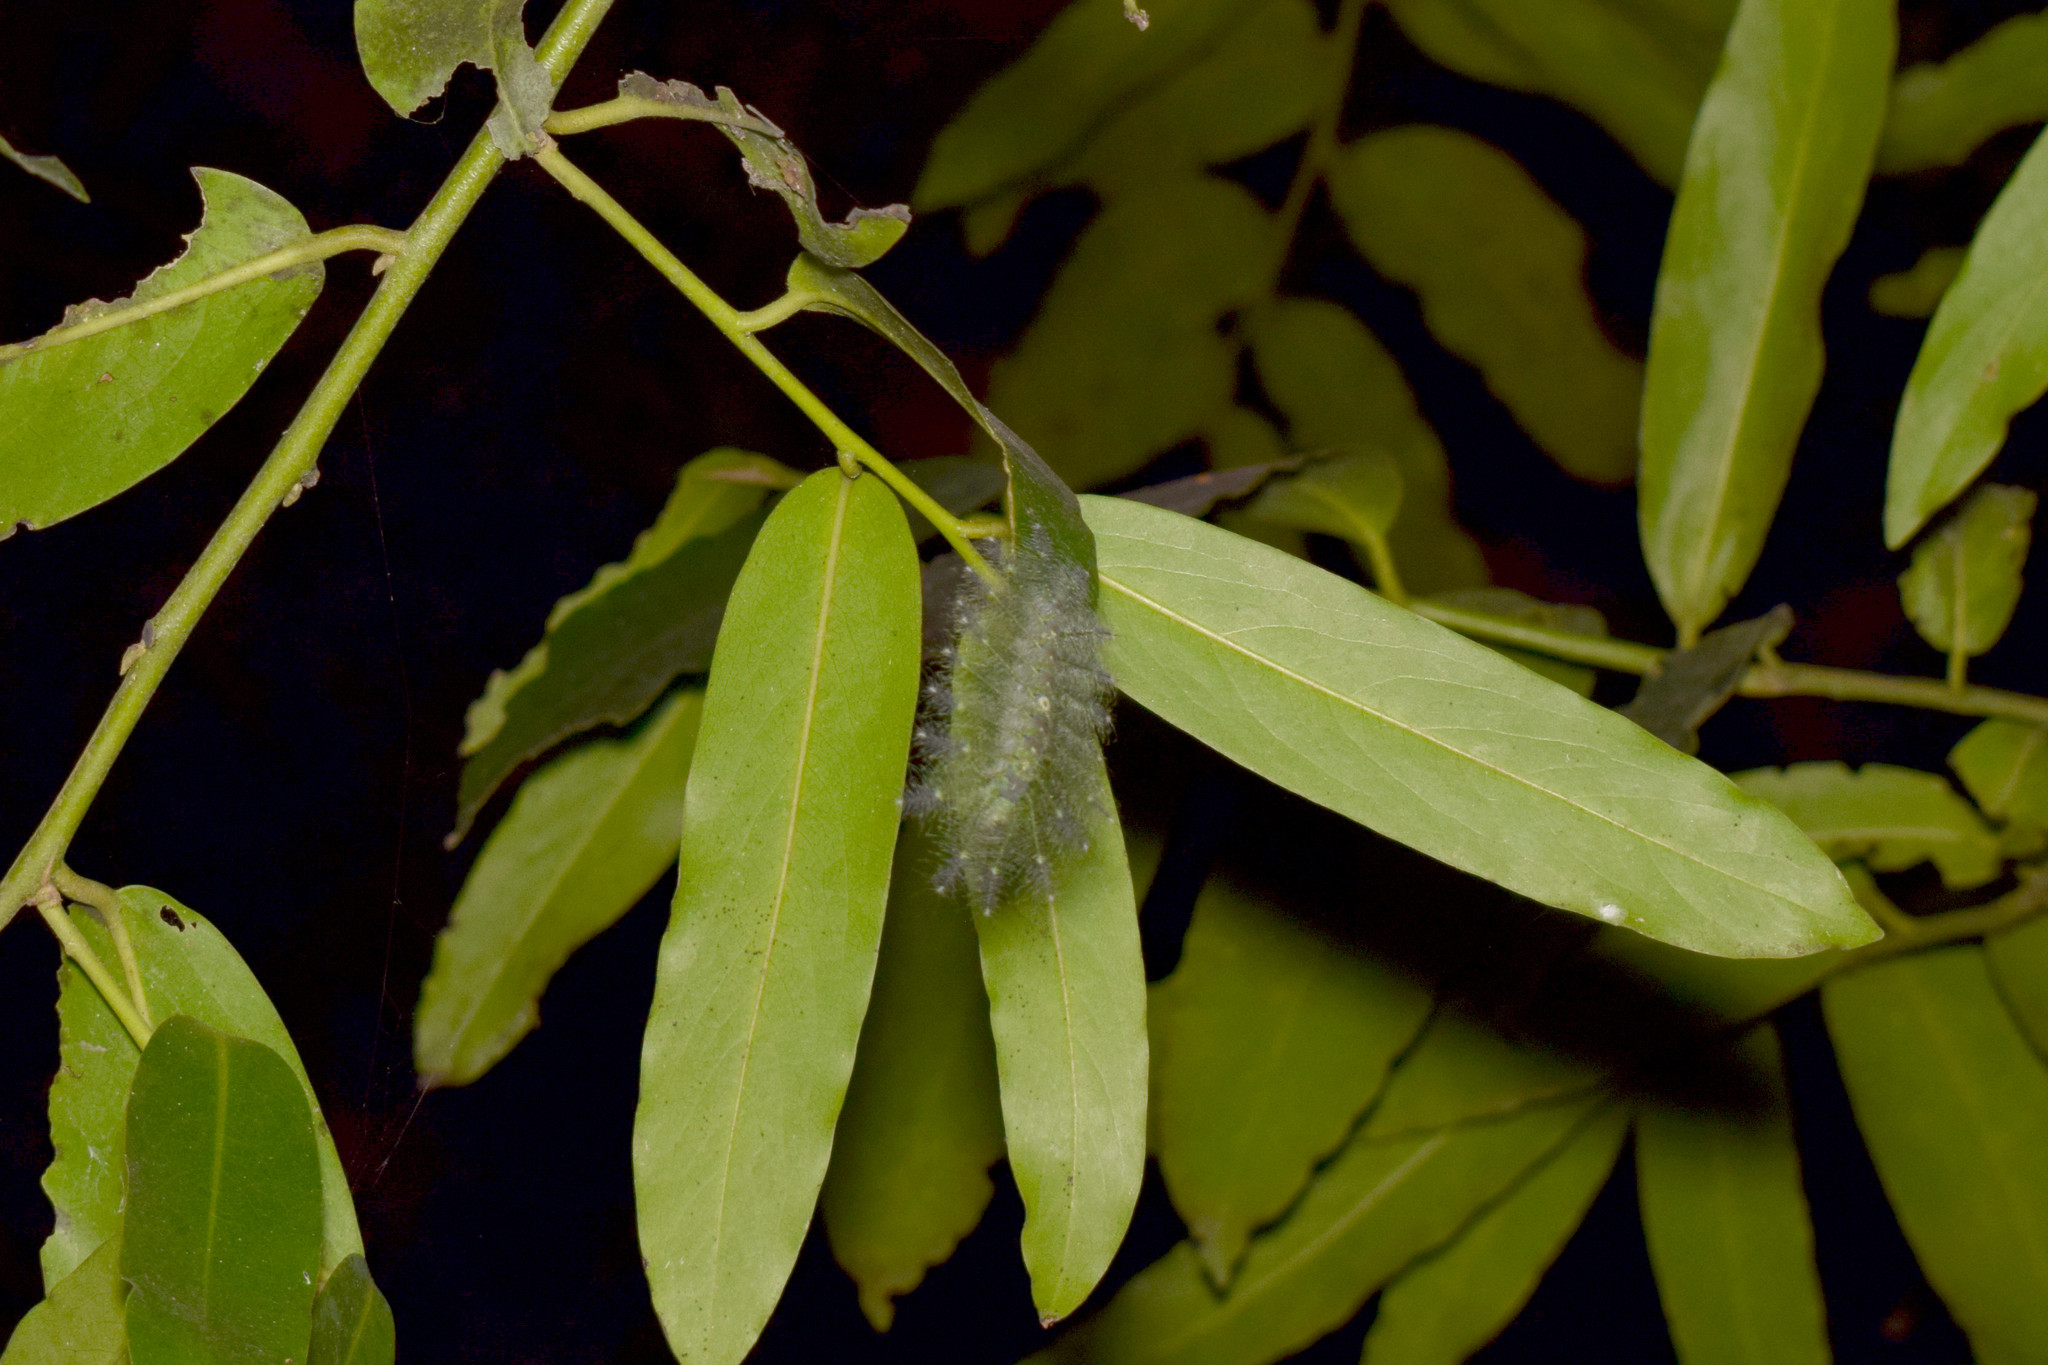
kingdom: Animalia
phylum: Arthropoda
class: Insecta
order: Lepidoptera
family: Nymphalidae
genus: Euthalia
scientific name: Euthalia aconthea
